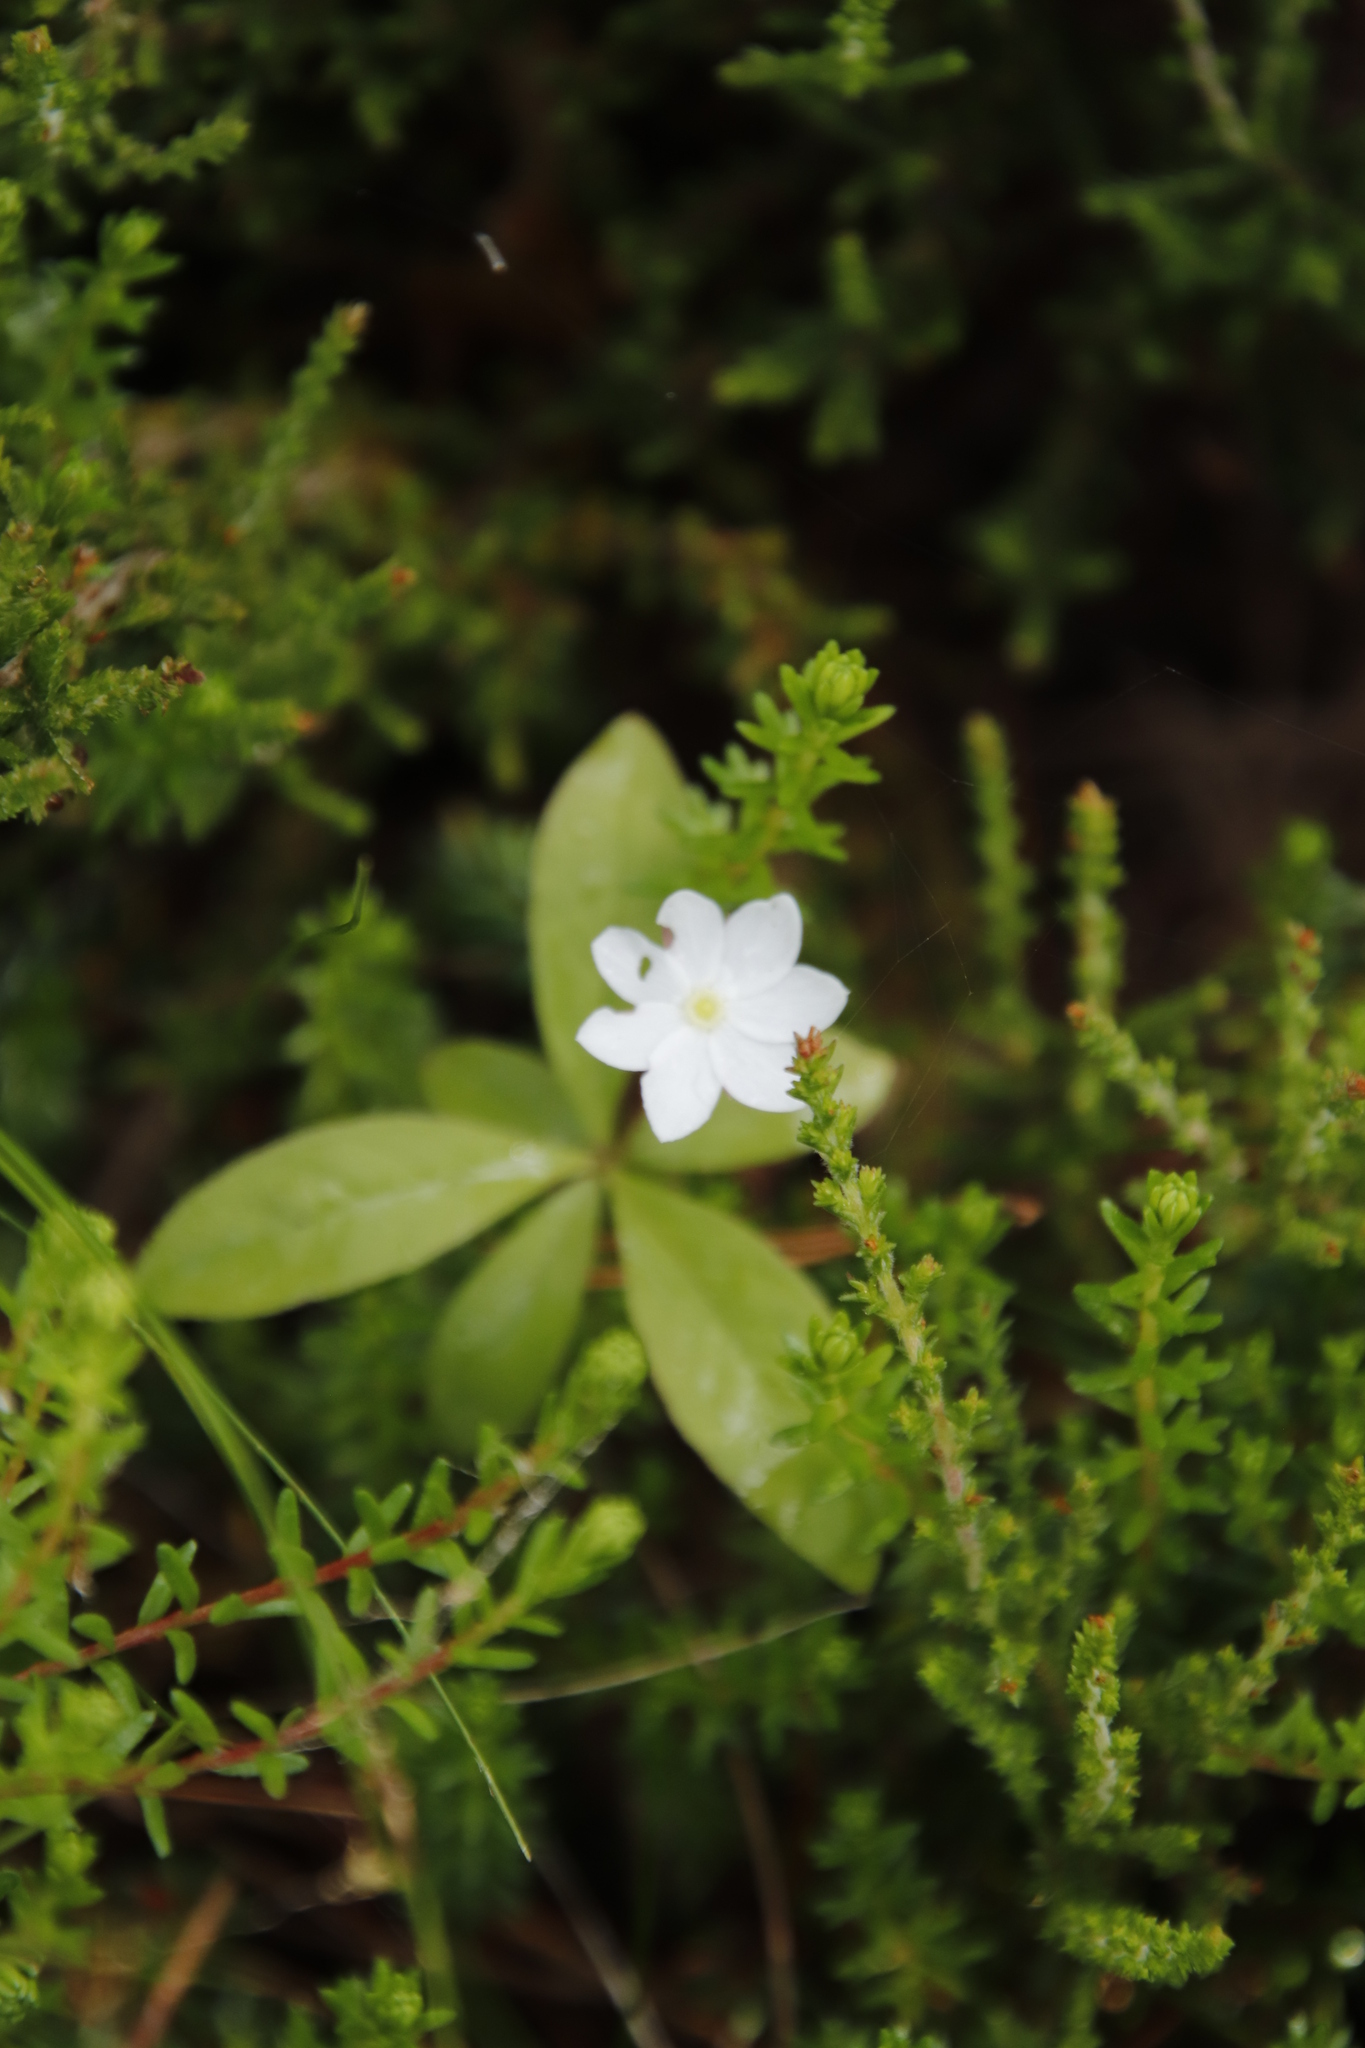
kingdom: Plantae
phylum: Tracheophyta
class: Magnoliopsida
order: Ericales
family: Primulaceae
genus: Lysimachia
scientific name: Lysimachia europaea
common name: Arctic starflower
